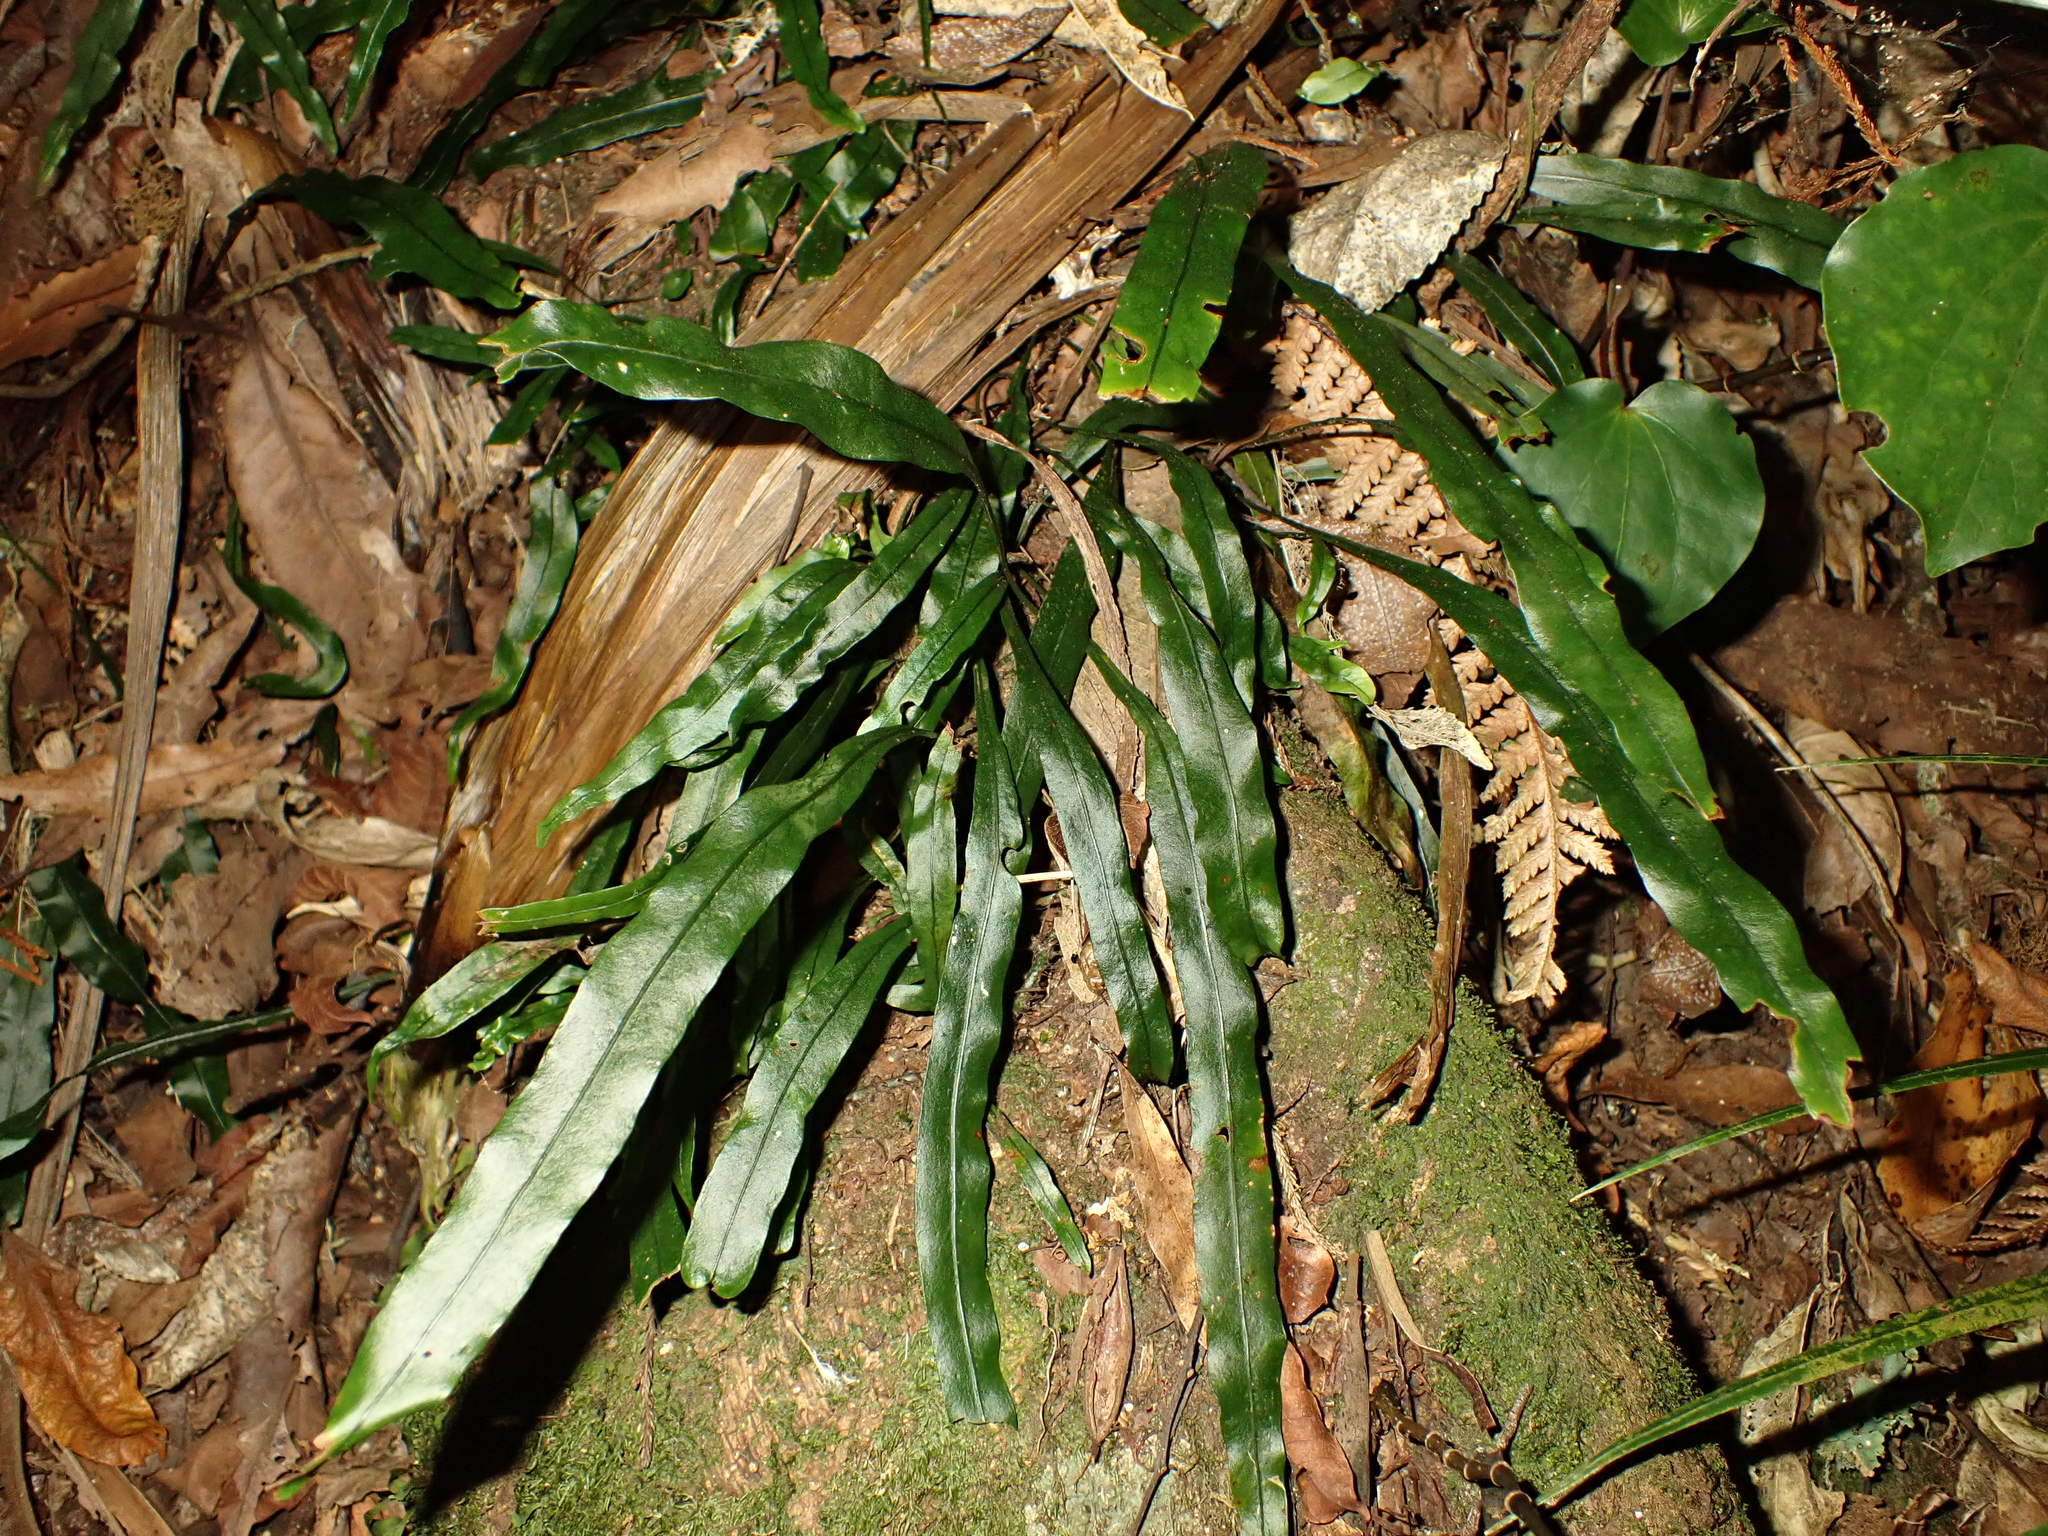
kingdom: Plantae
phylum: Tracheophyta
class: Polypodiopsida
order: Polypodiales
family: Polypodiaceae
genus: Lecanopteris
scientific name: Lecanopteris scandens
